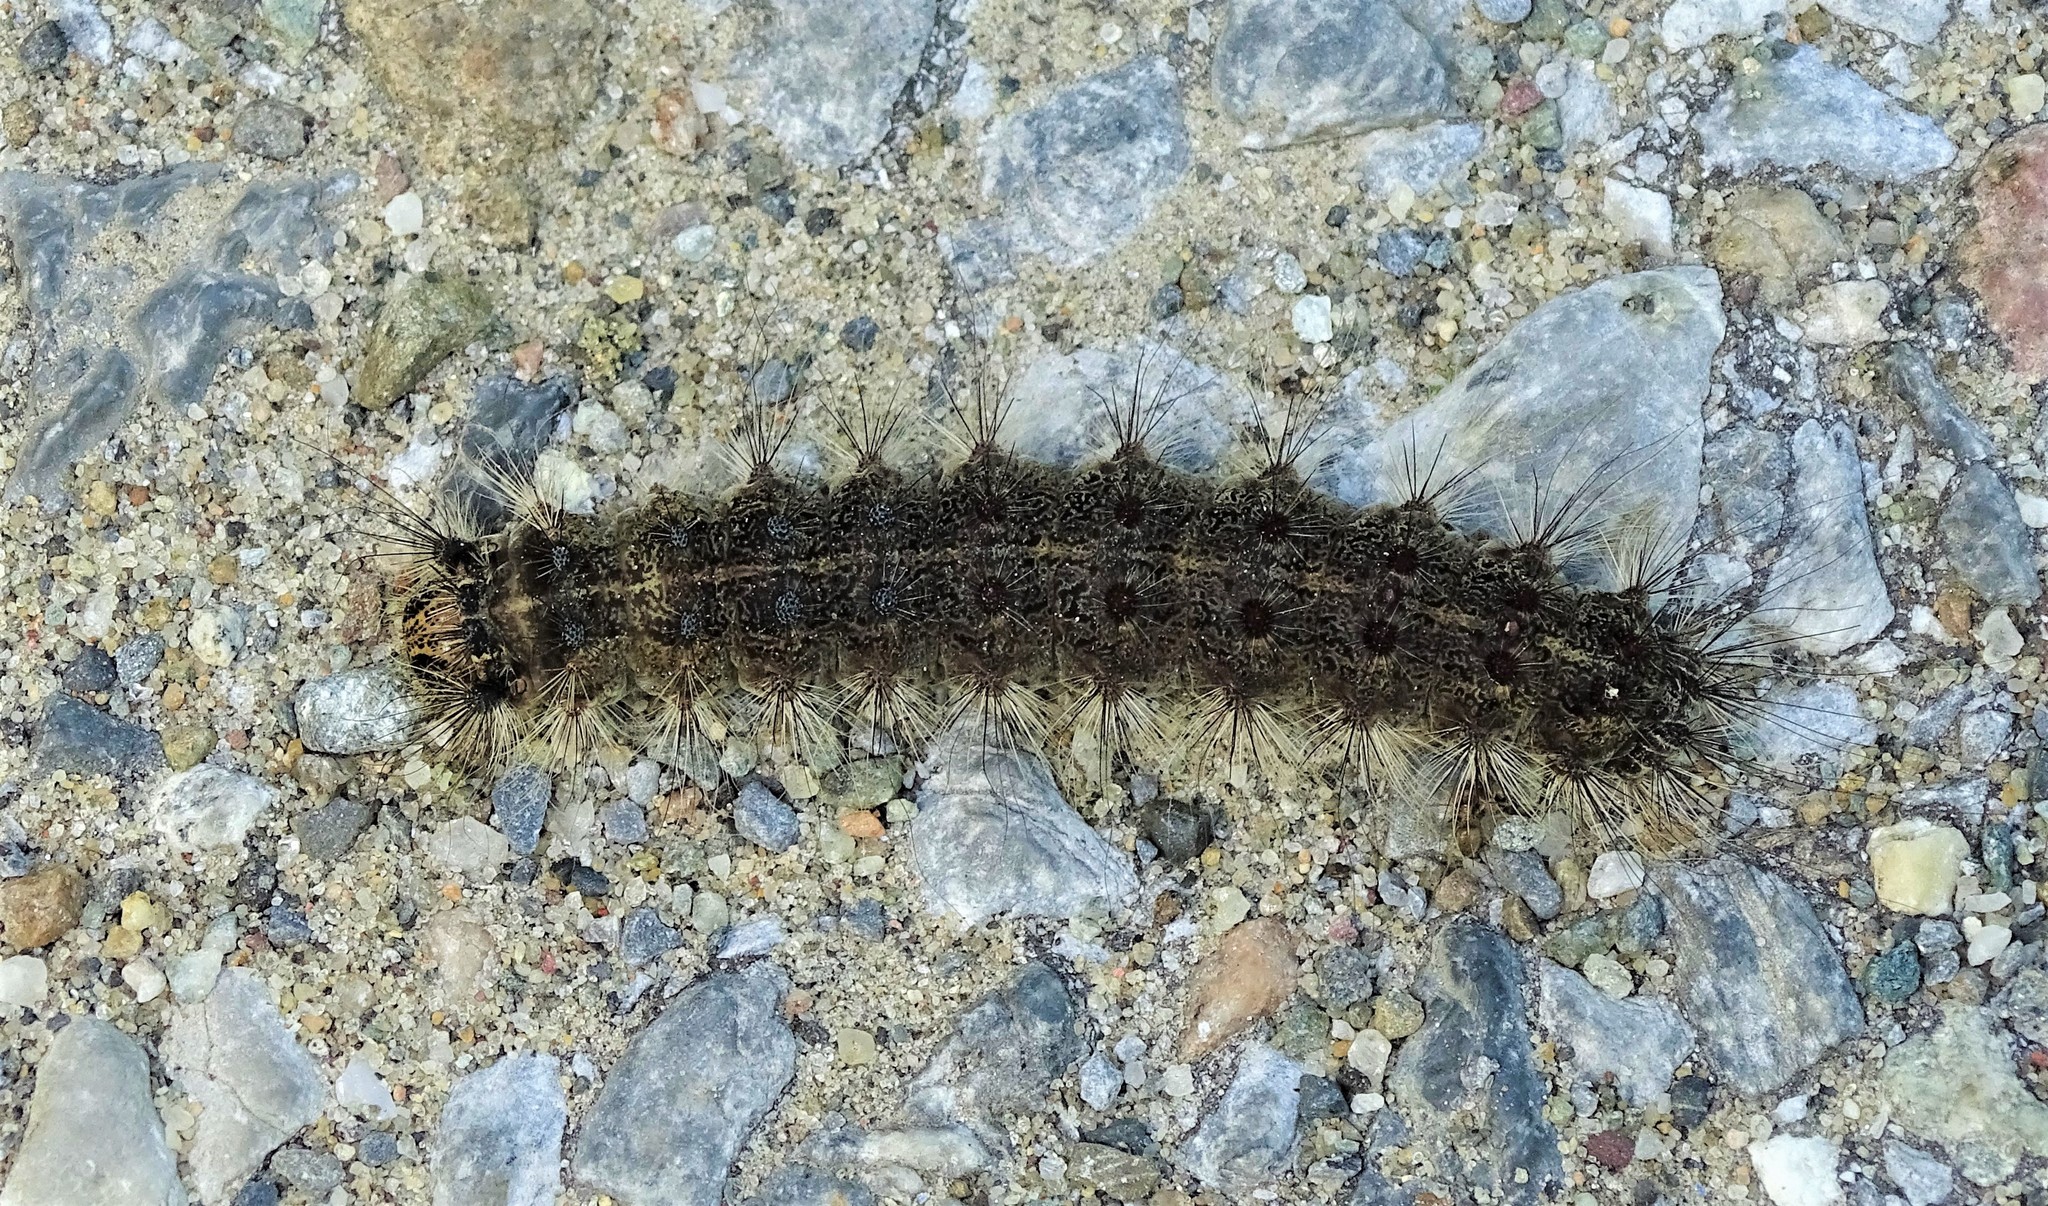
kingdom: Animalia
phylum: Arthropoda
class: Insecta
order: Lepidoptera
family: Erebidae
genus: Lymantria
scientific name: Lymantria dispar
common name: Gypsy moth
